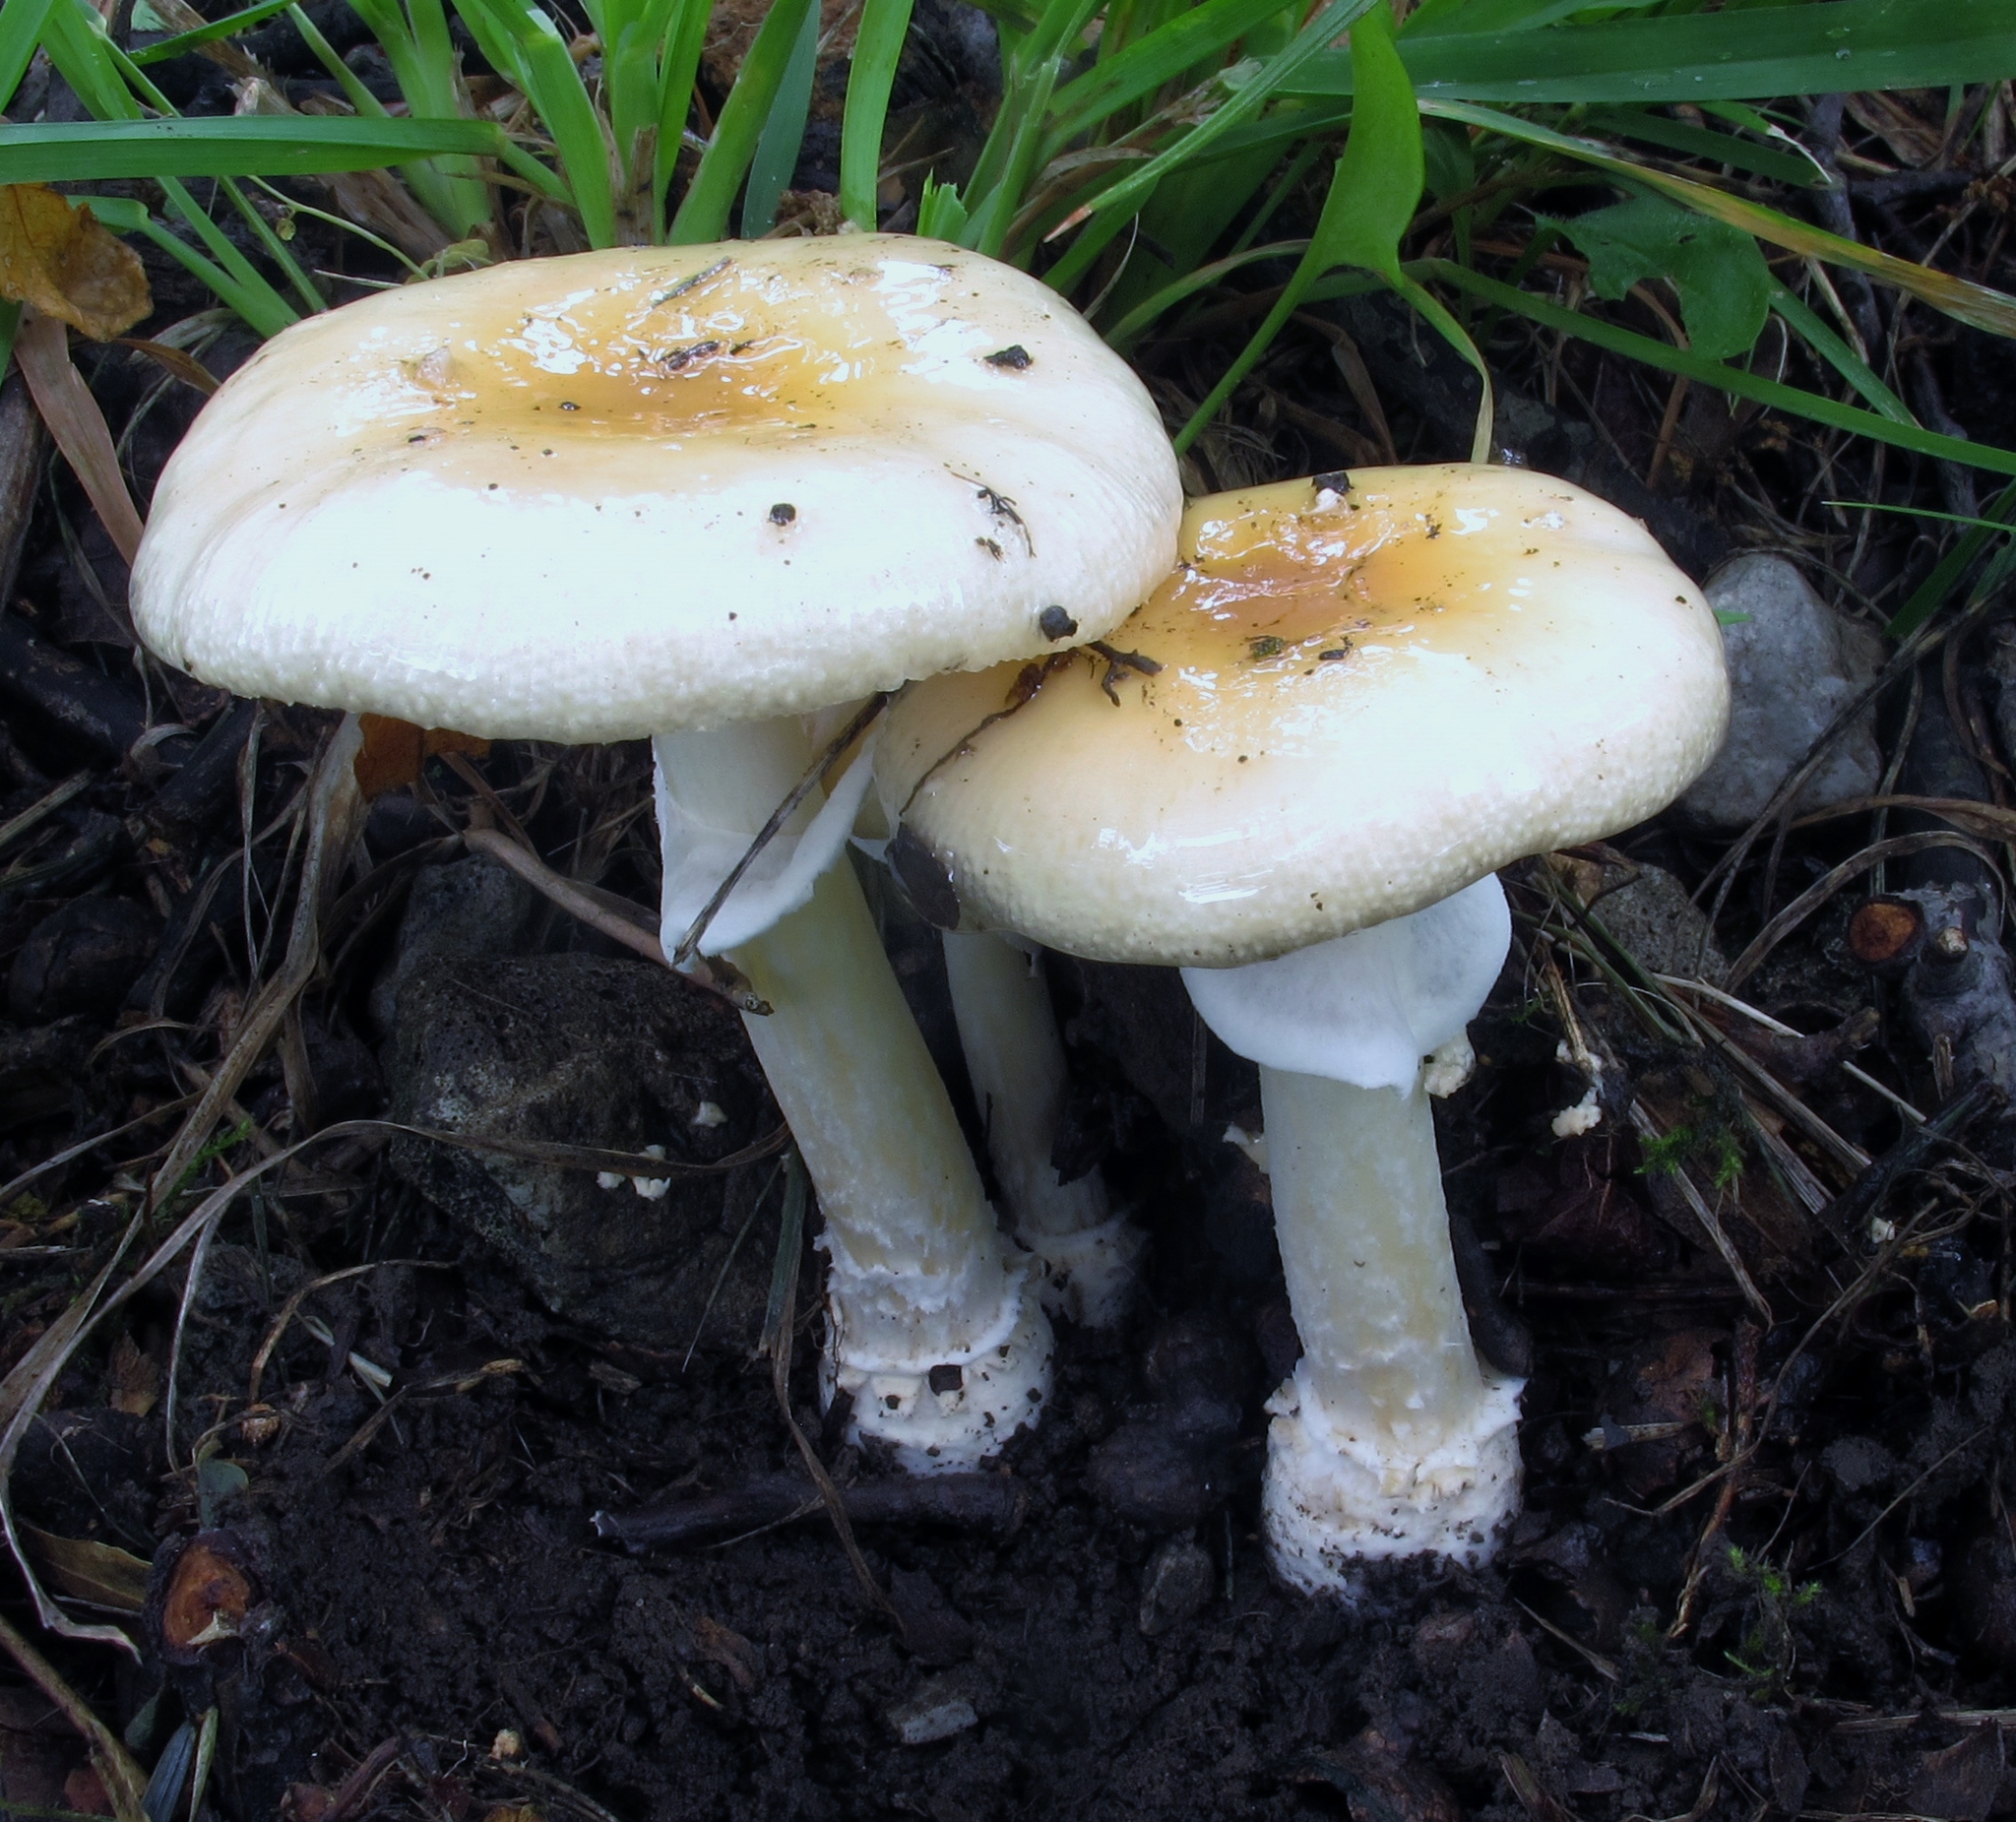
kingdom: Fungi
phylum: Basidiomycota
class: Agaricomycetes
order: Agaricales
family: Amanitaceae
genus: Amanita
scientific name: Amanita multisquamosa
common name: Small funnel-veil amanita
